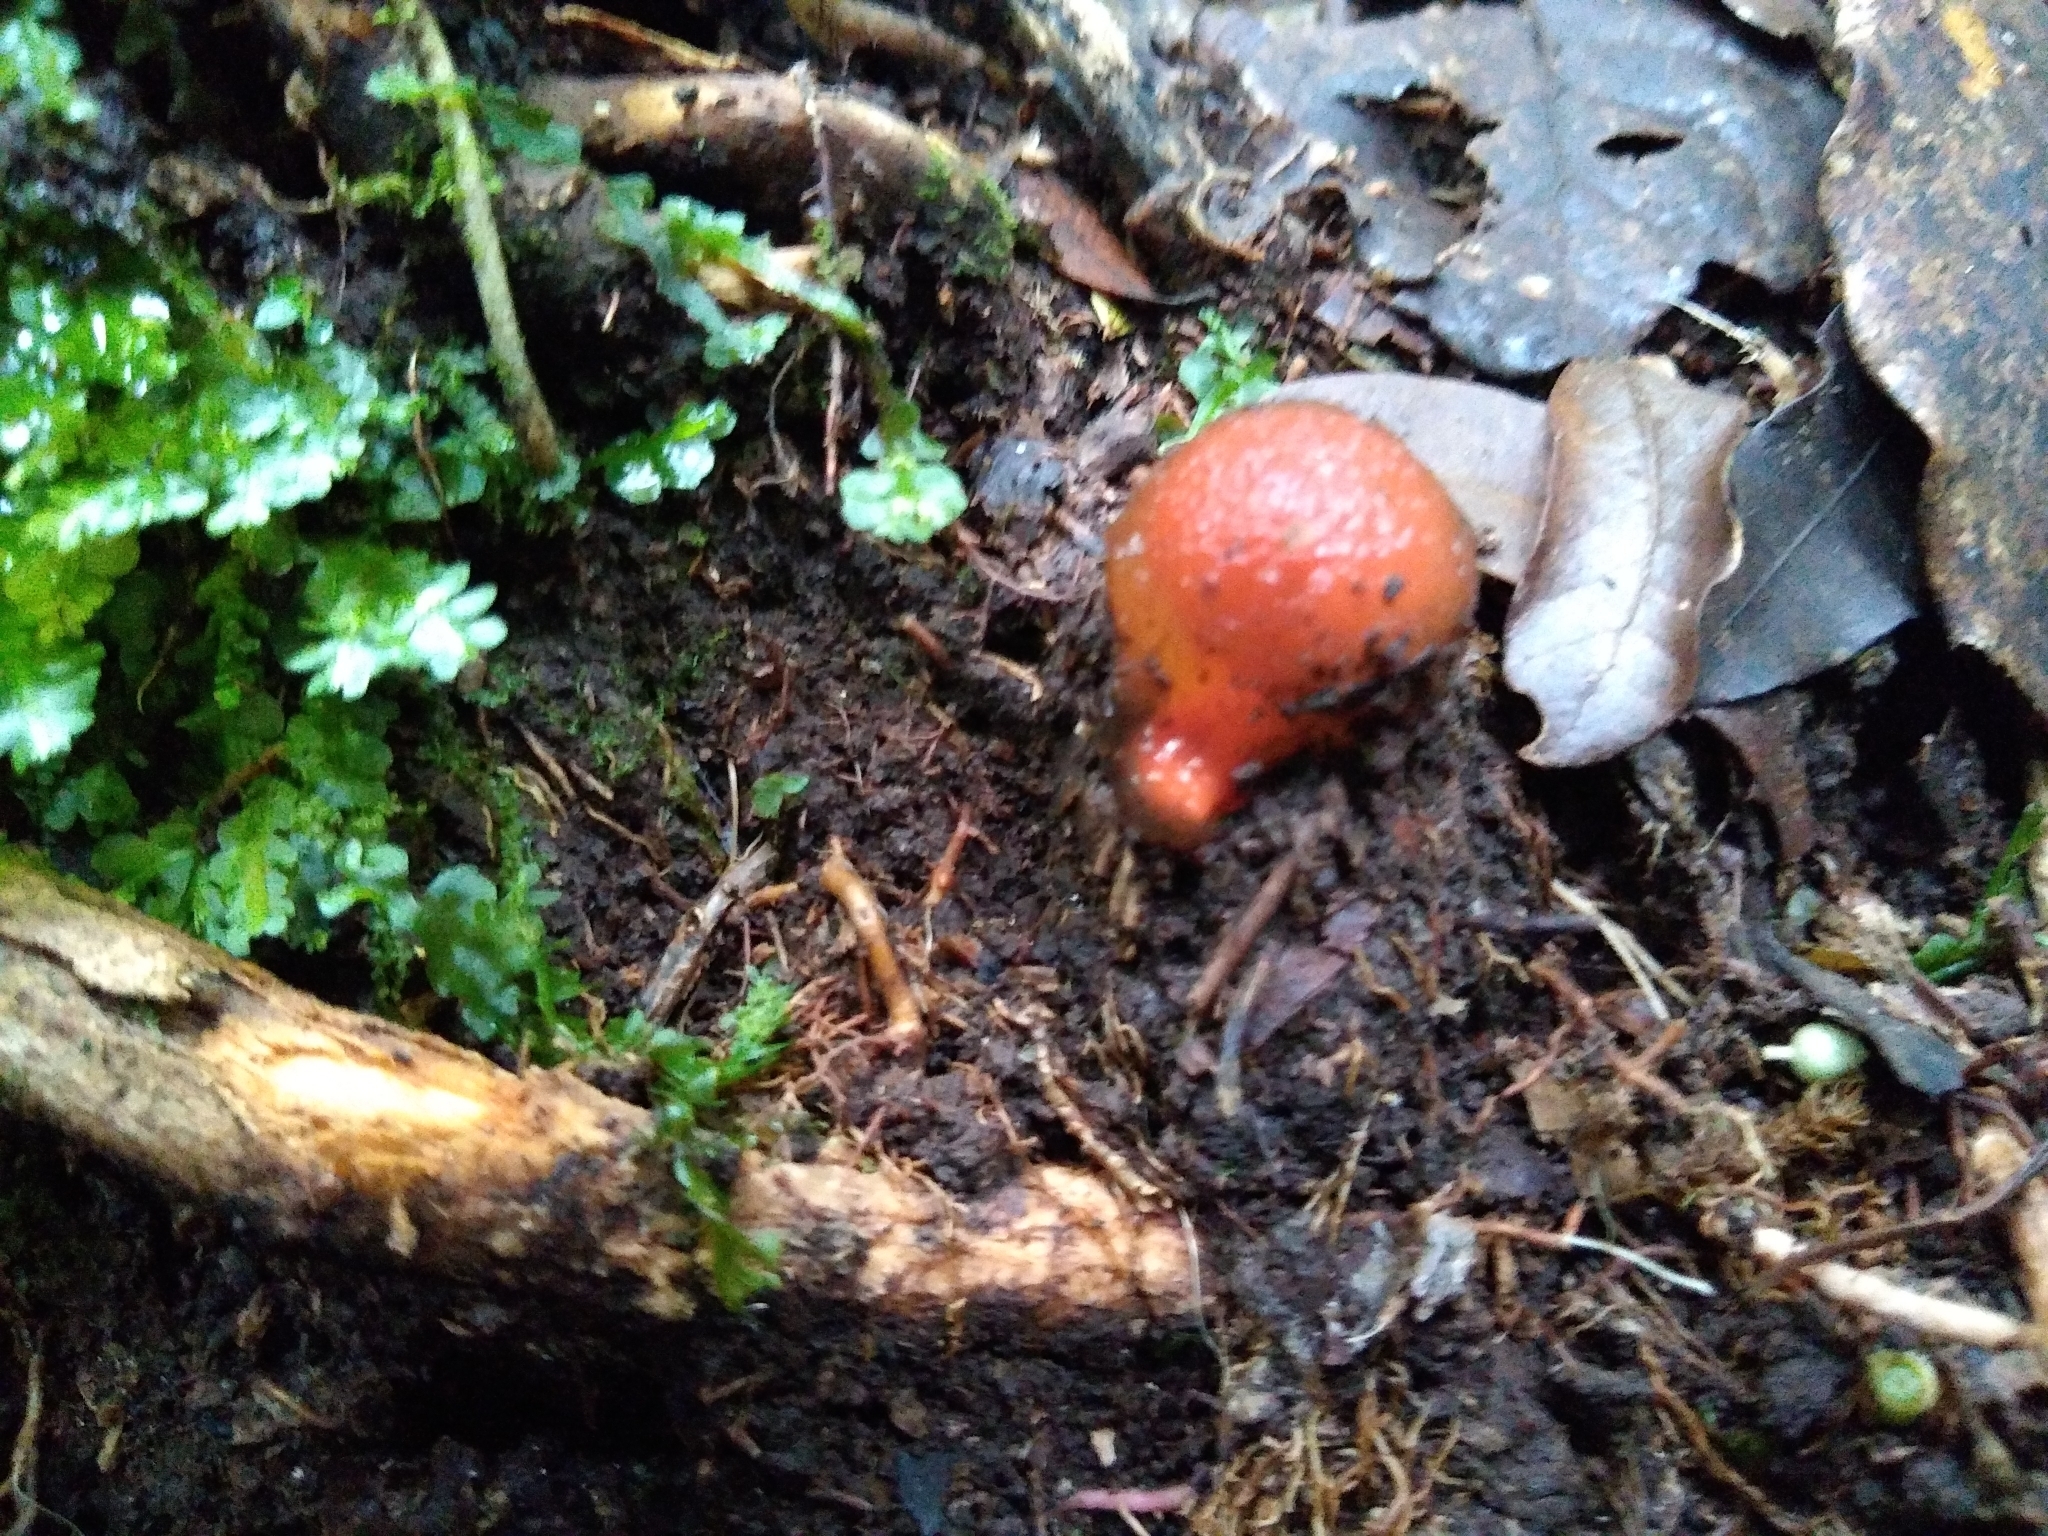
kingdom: Fungi
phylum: Basidiomycota
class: Agaricomycetes
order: Boletales
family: Calostomataceae
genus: Calostoma
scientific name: Calostoma cinnabarinum
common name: Stalked puffball-in-aspic
